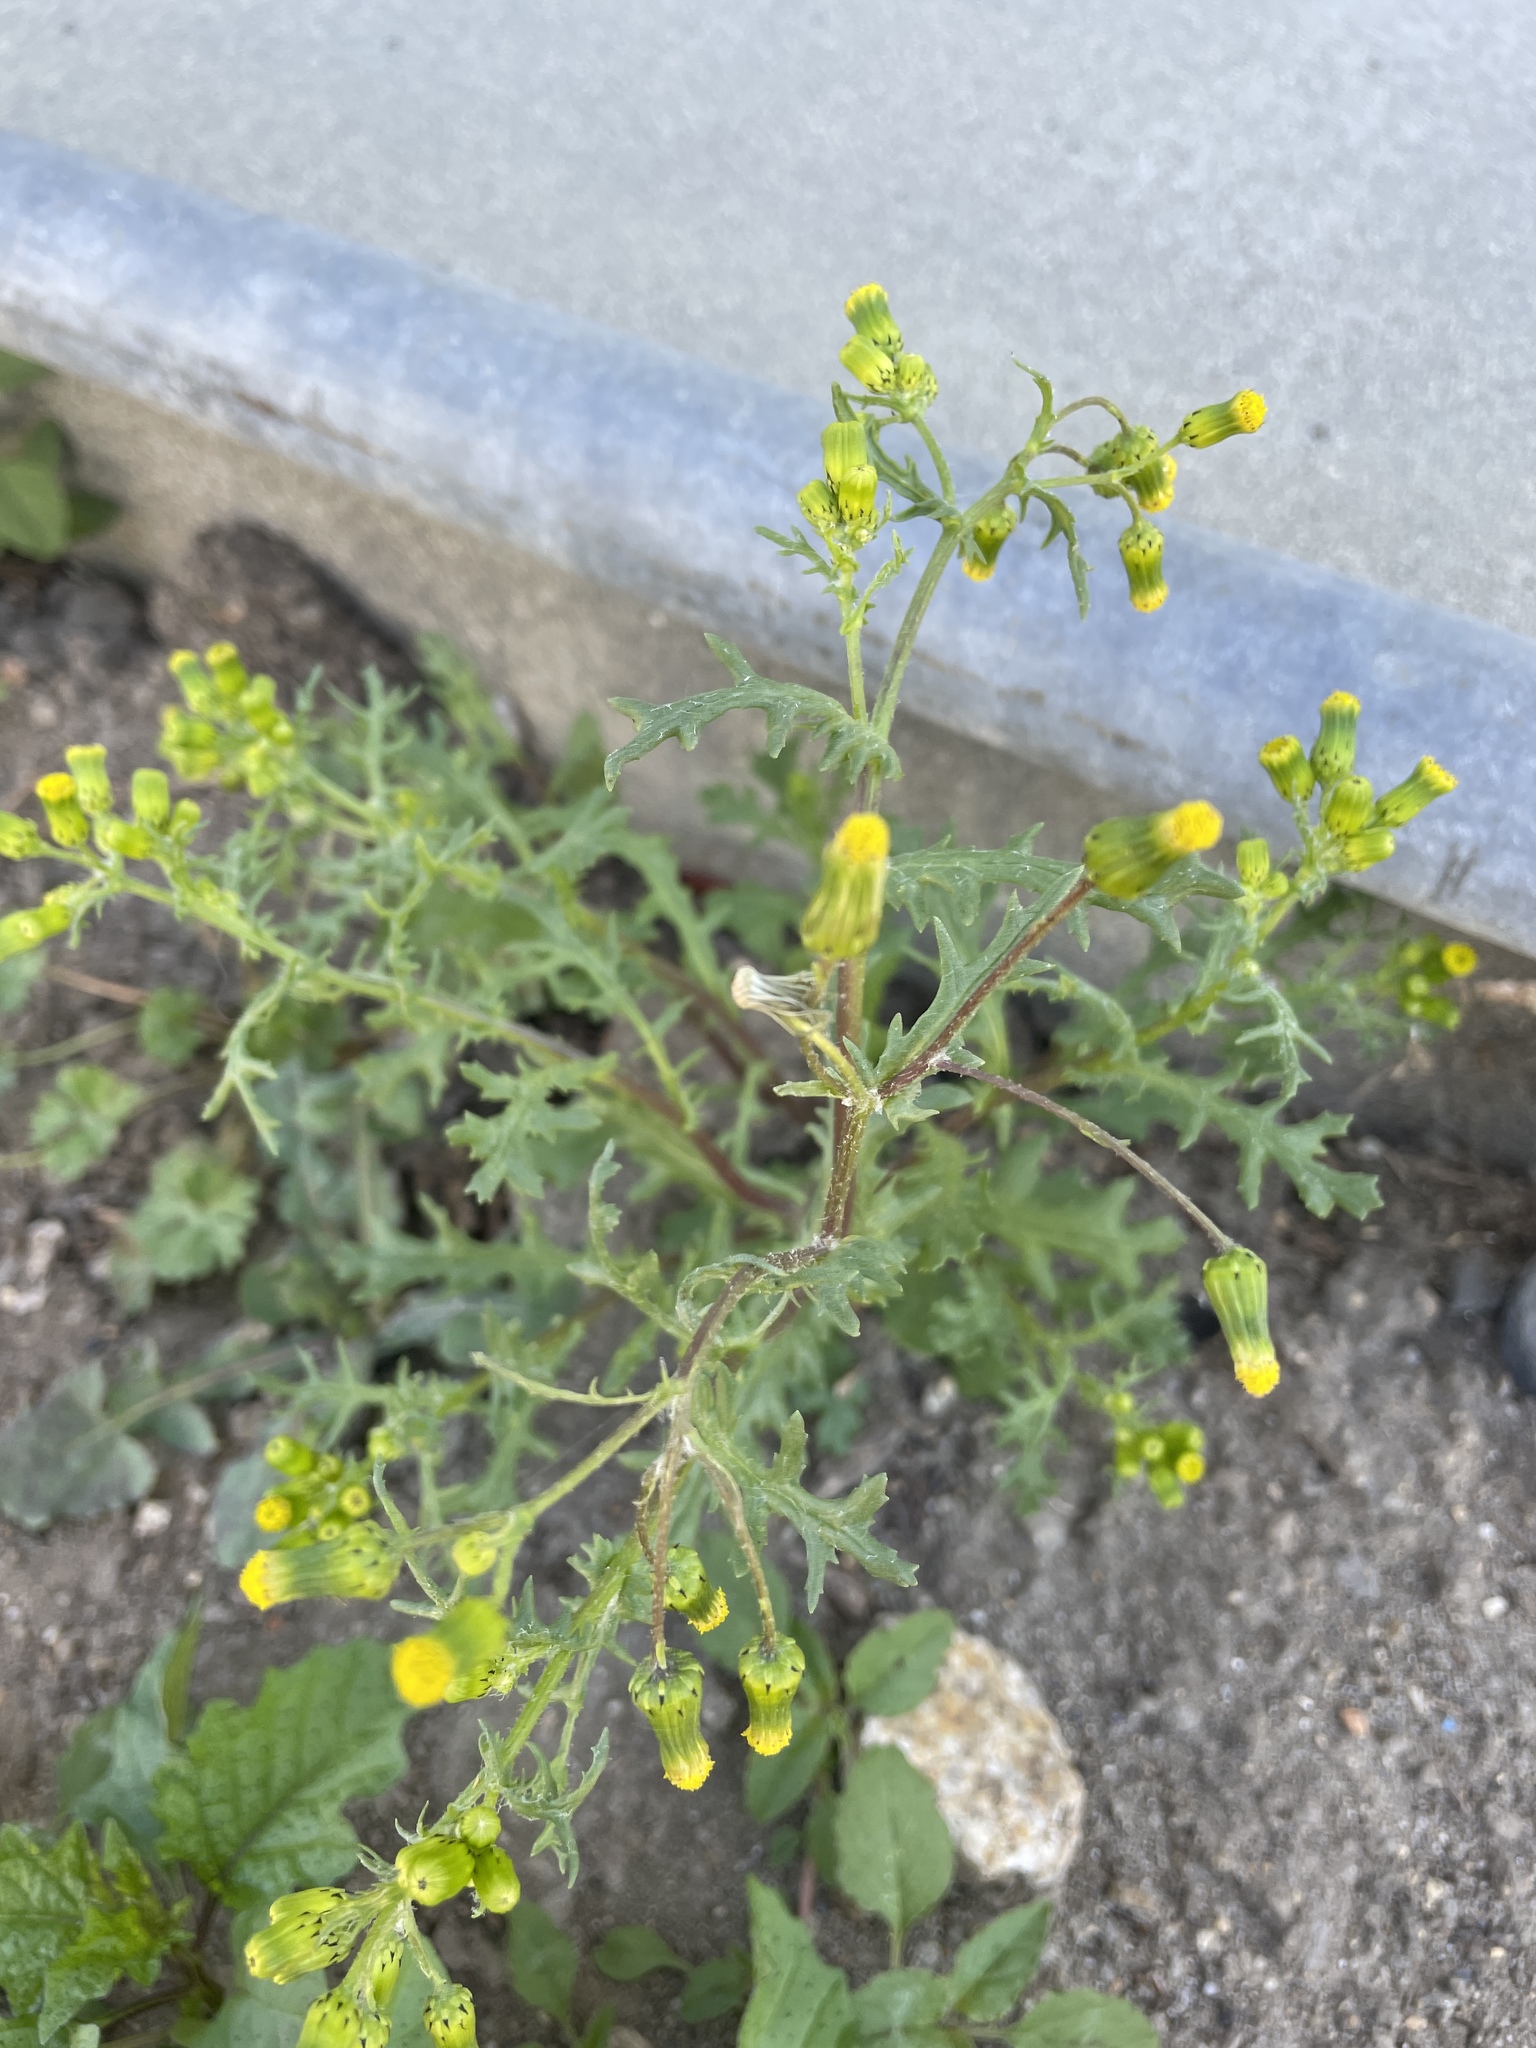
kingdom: Plantae
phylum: Tracheophyta
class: Magnoliopsida
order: Asterales
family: Asteraceae
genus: Senecio
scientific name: Senecio vulgaris
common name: Old-man-in-the-spring
